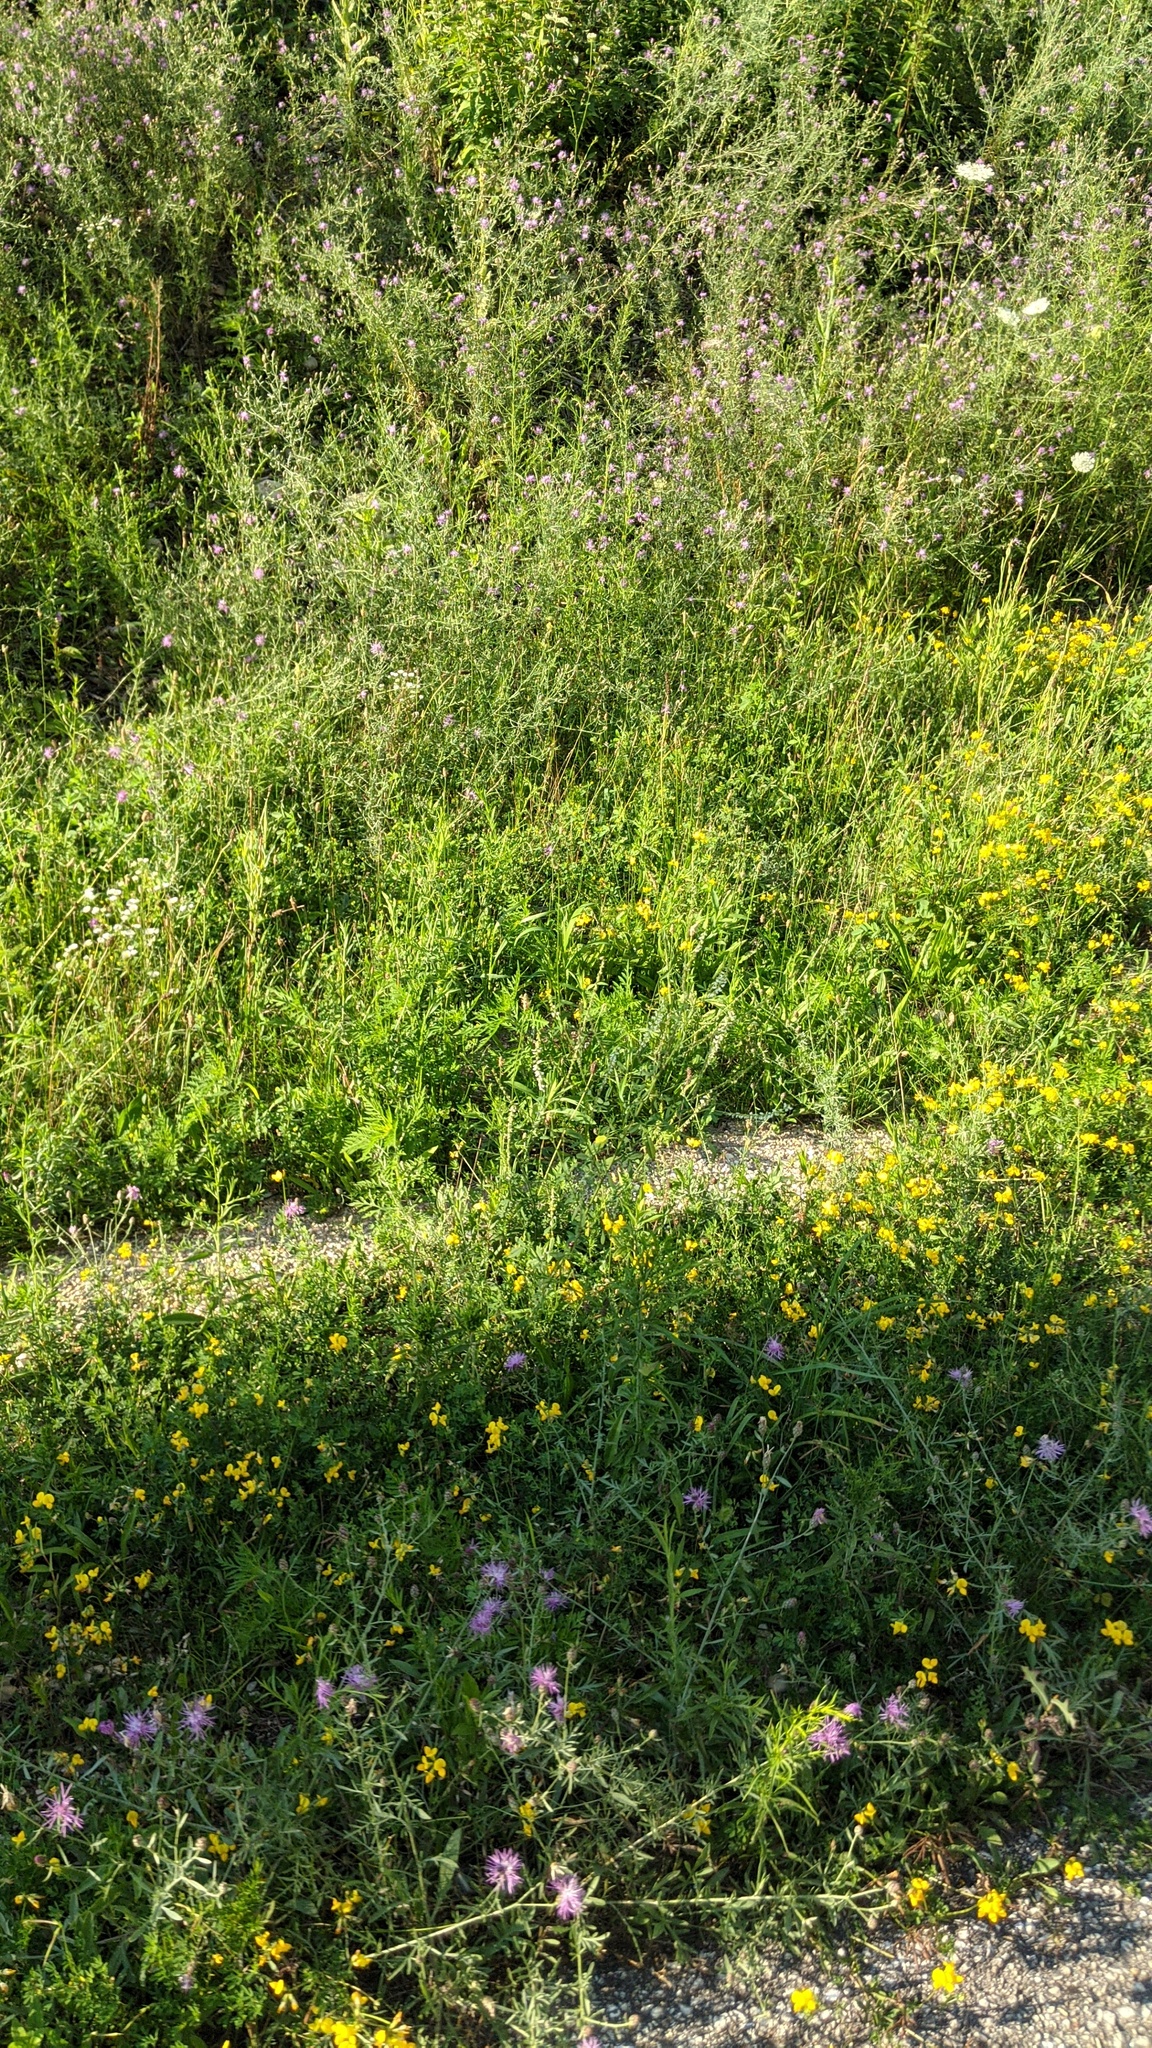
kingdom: Plantae
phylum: Tracheophyta
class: Magnoliopsida
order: Fabales
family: Fabaceae
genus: Lotus
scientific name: Lotus corniculatus
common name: Common bird's-foot-trefoil
